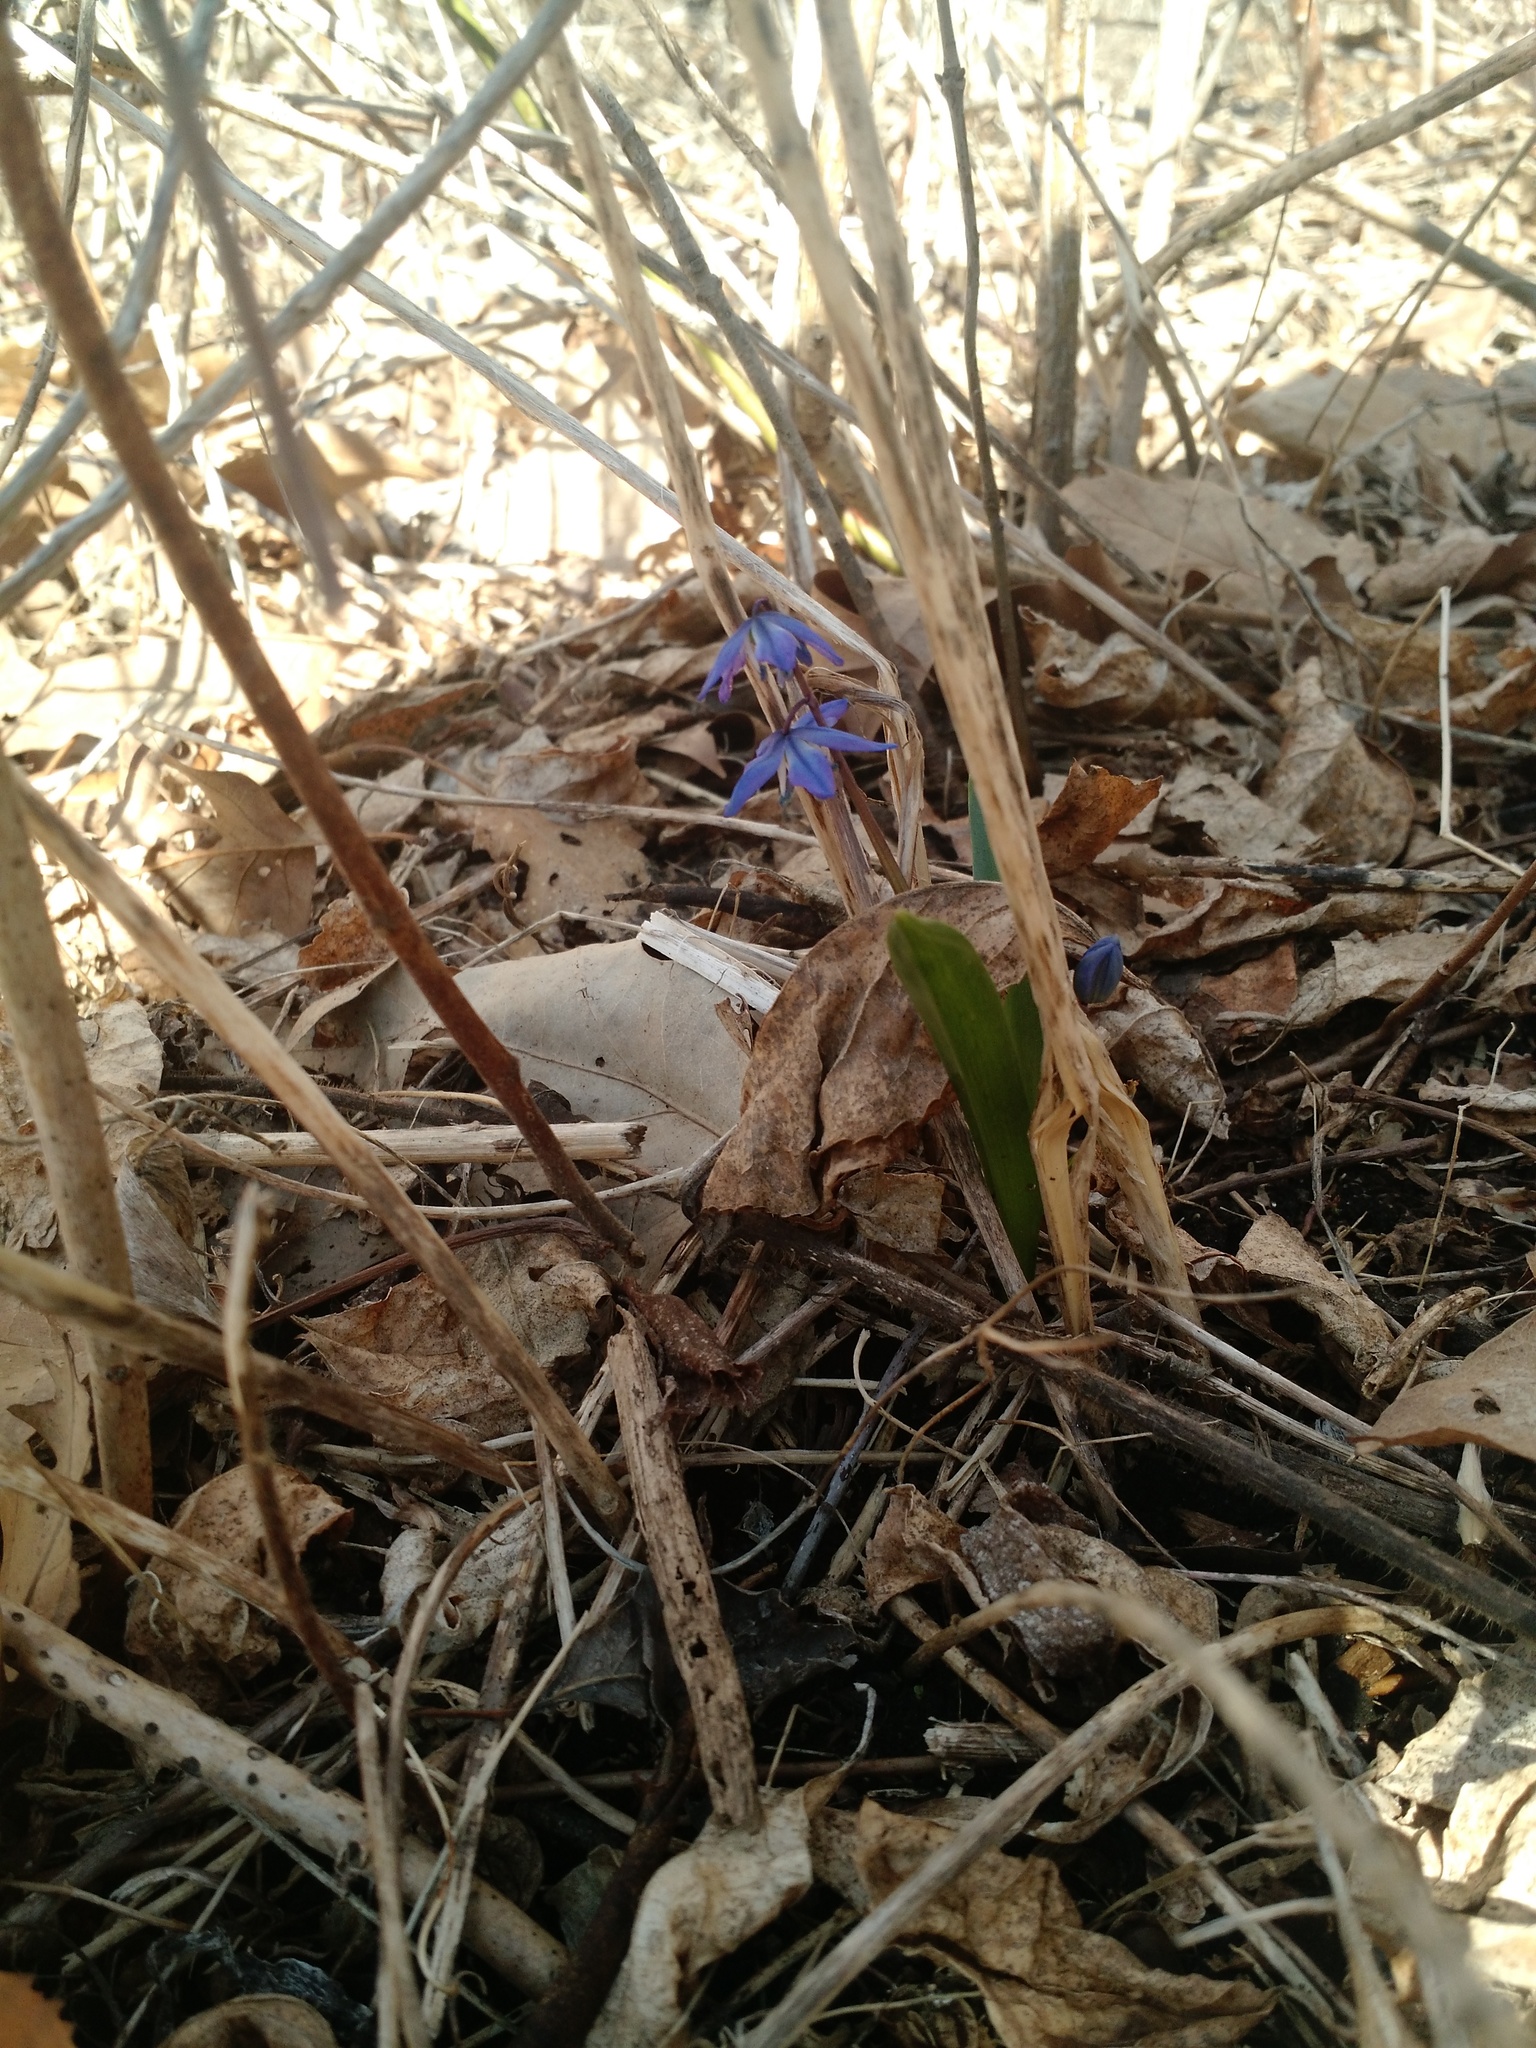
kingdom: Plantae
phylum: Tracheophyta
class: Liliopsida
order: Asparagales
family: Asparagaceae
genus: Scilla
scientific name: Scilla siberica
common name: Siberian squill
